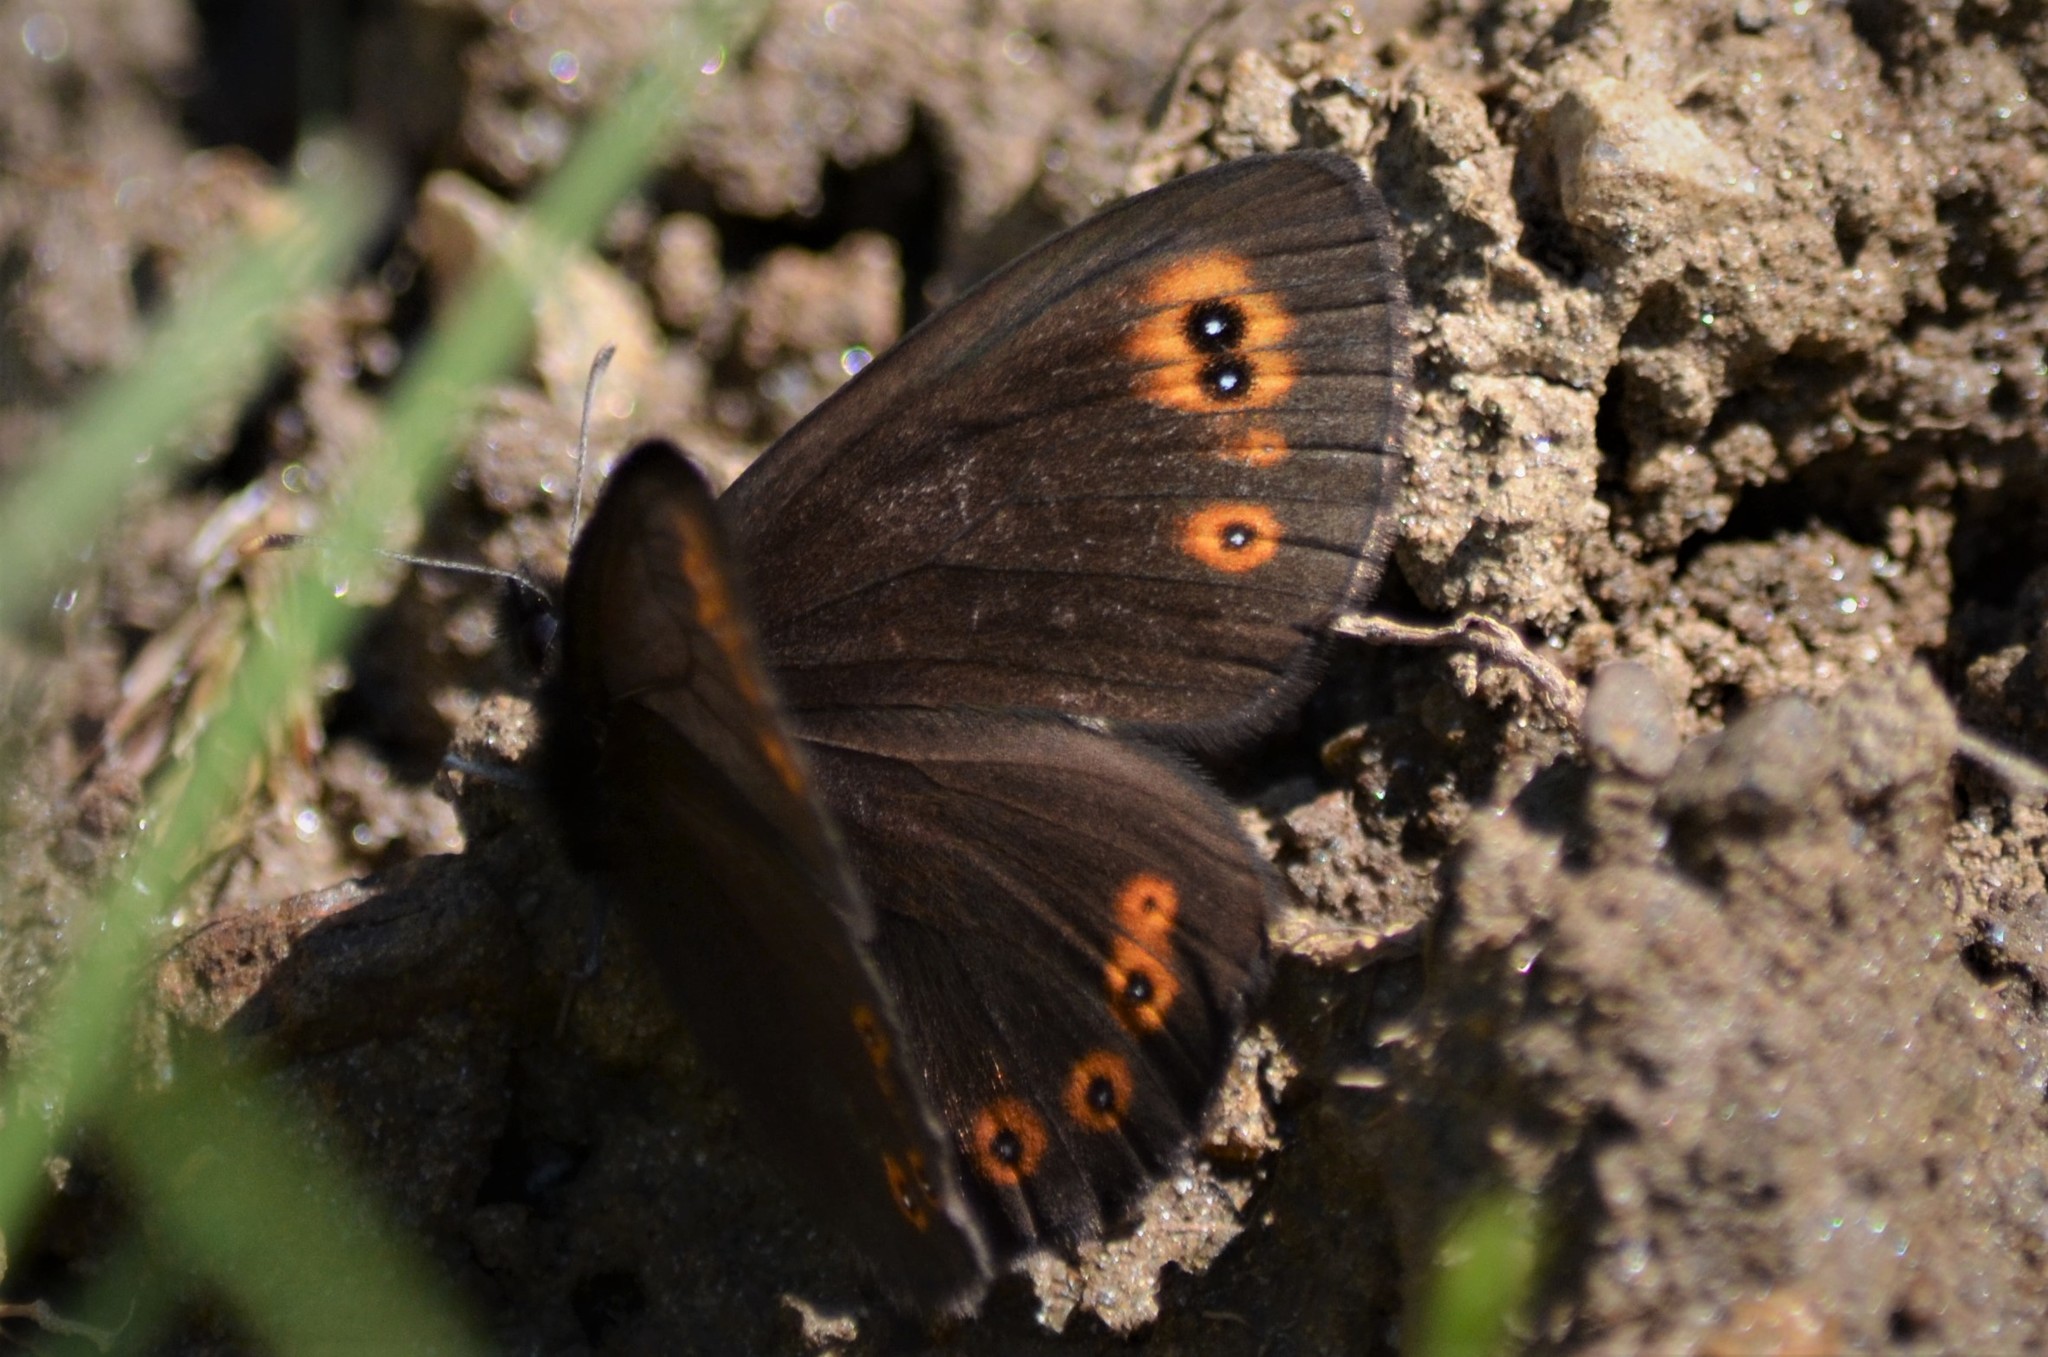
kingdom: Animalia
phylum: Arthropoda
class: Insecta
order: Lepidoptera
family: Nymphalidae
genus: Erebia
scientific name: Erebia medusa
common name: Woodland ringlet
